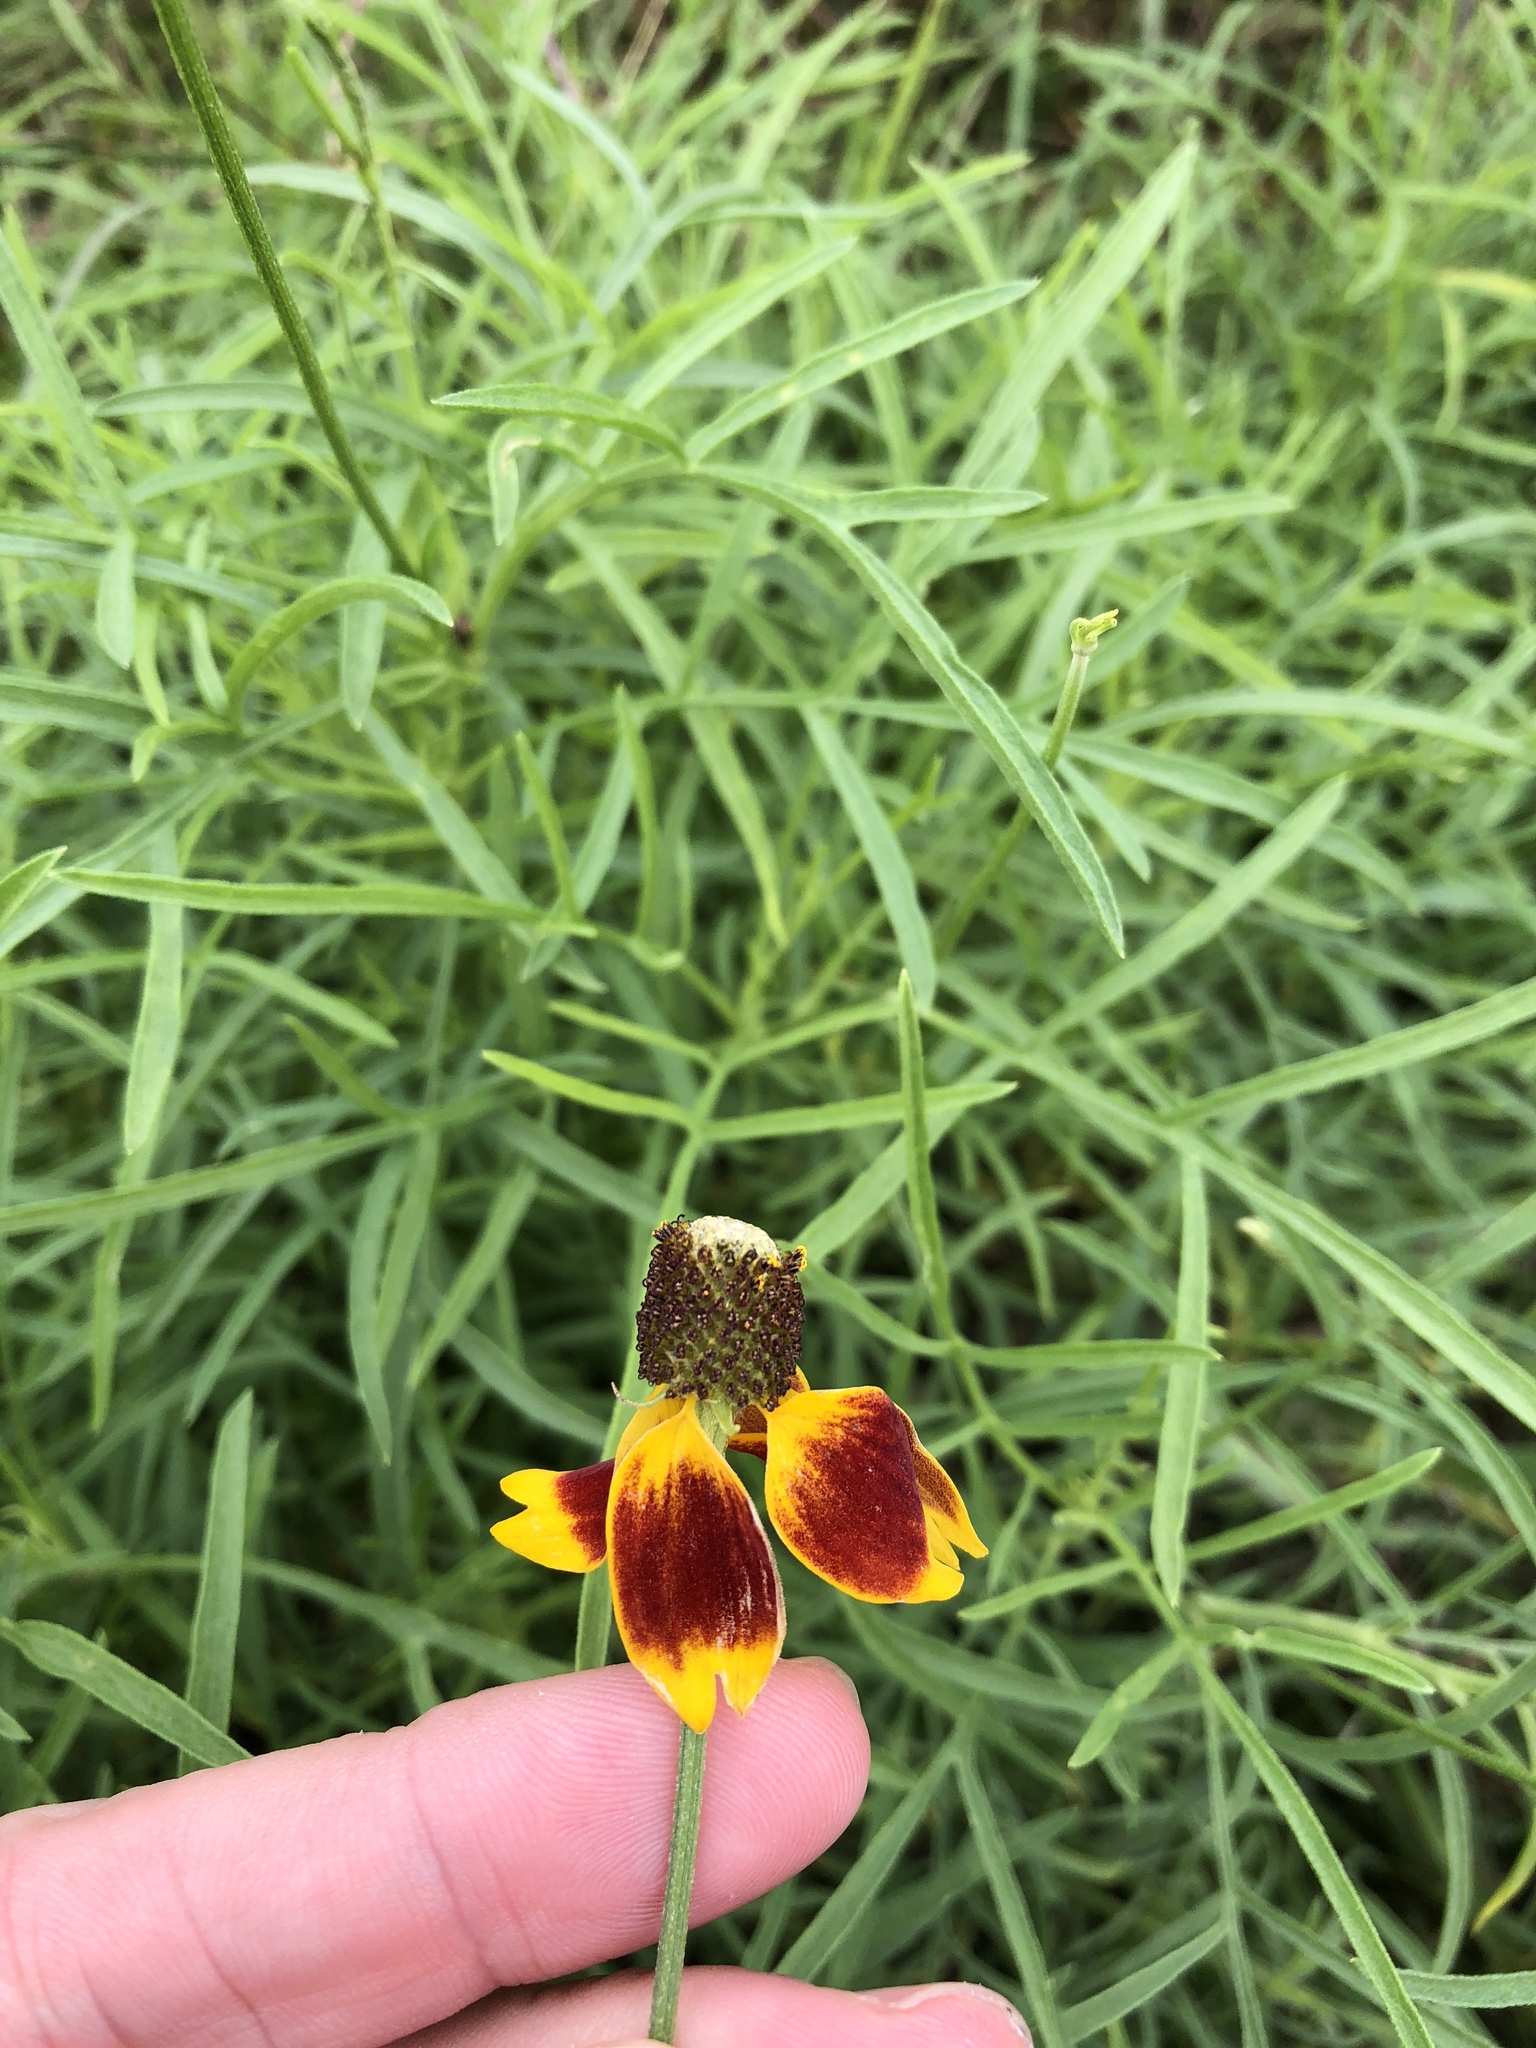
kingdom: Plantae
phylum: Tracheophyta
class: Magnoliopsida
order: Asterales
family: Asteraceae
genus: Ratibida
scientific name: Ratibida columnifera
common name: Prairie coneflower
